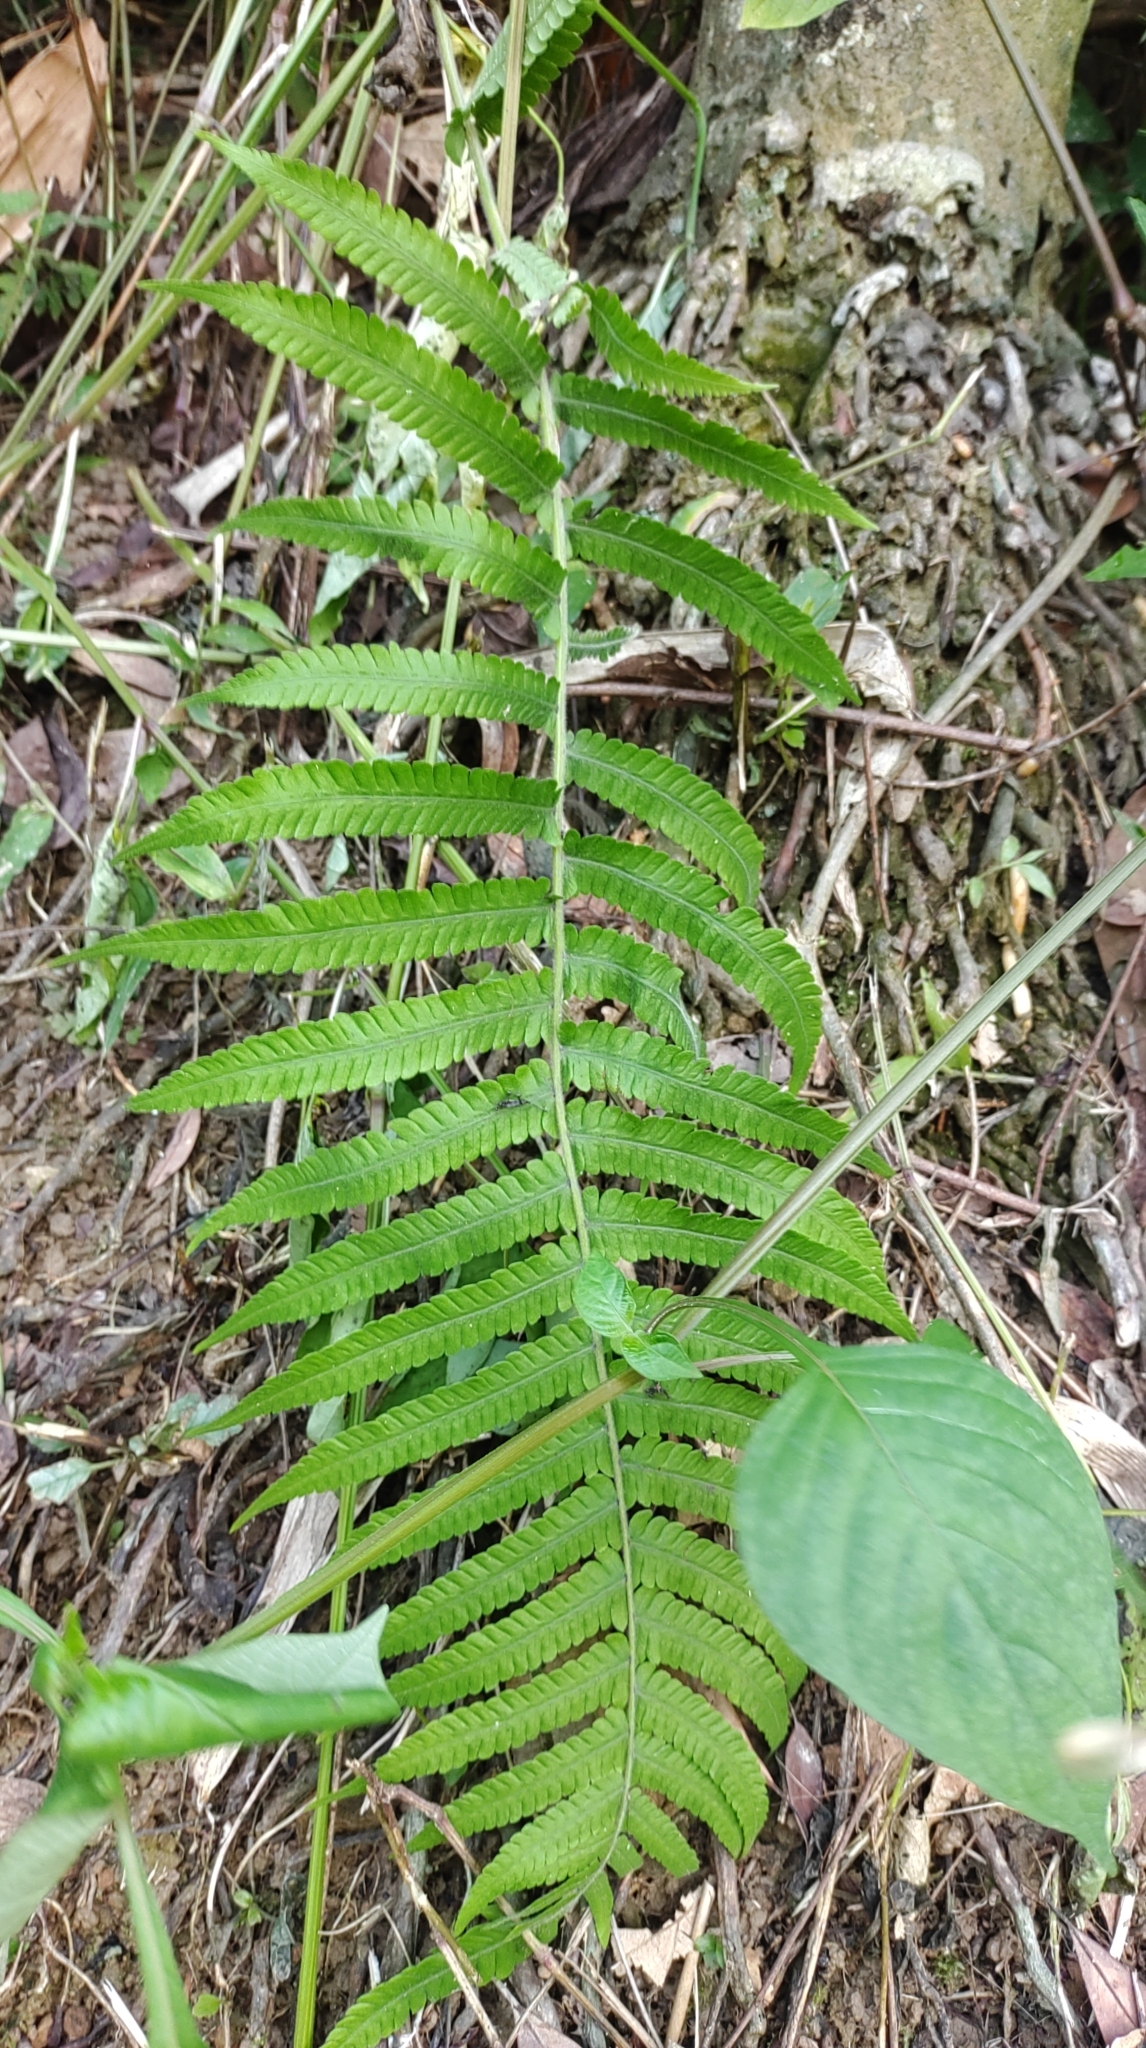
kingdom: Plantae
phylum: Tracheophyta
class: Polypodiopsida
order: Polypodiales
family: Thelypteridaceae
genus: Christella
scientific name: Christella acuminata
